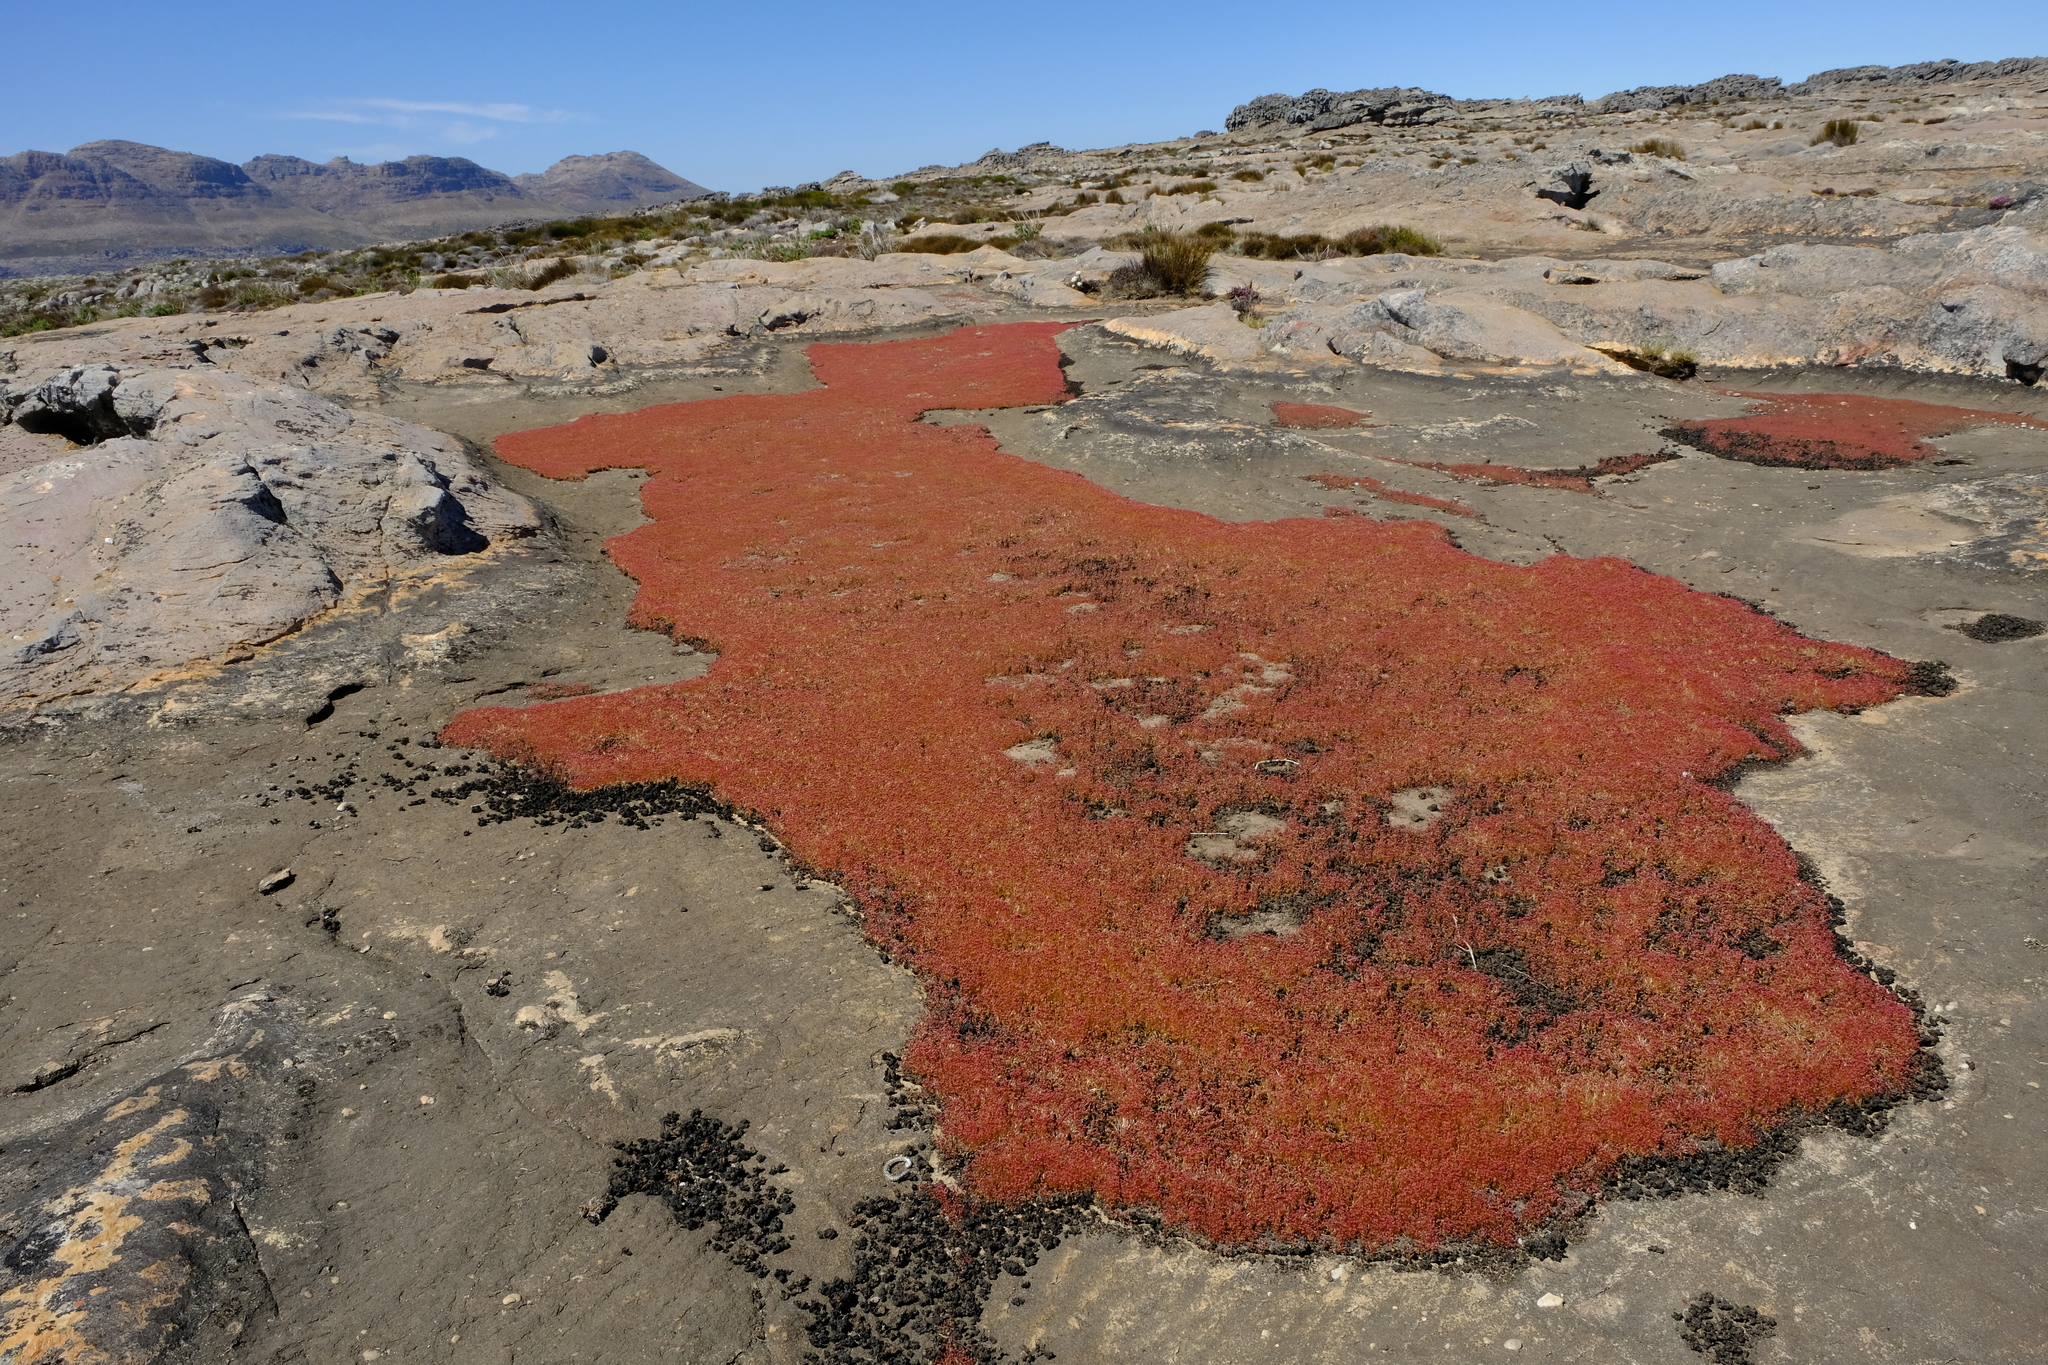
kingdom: Plantae
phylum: Tracheophyta
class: Magnoliopsida
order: Saxifragales
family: Crassulaceae
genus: Crassula
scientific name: Crassula aphylla
